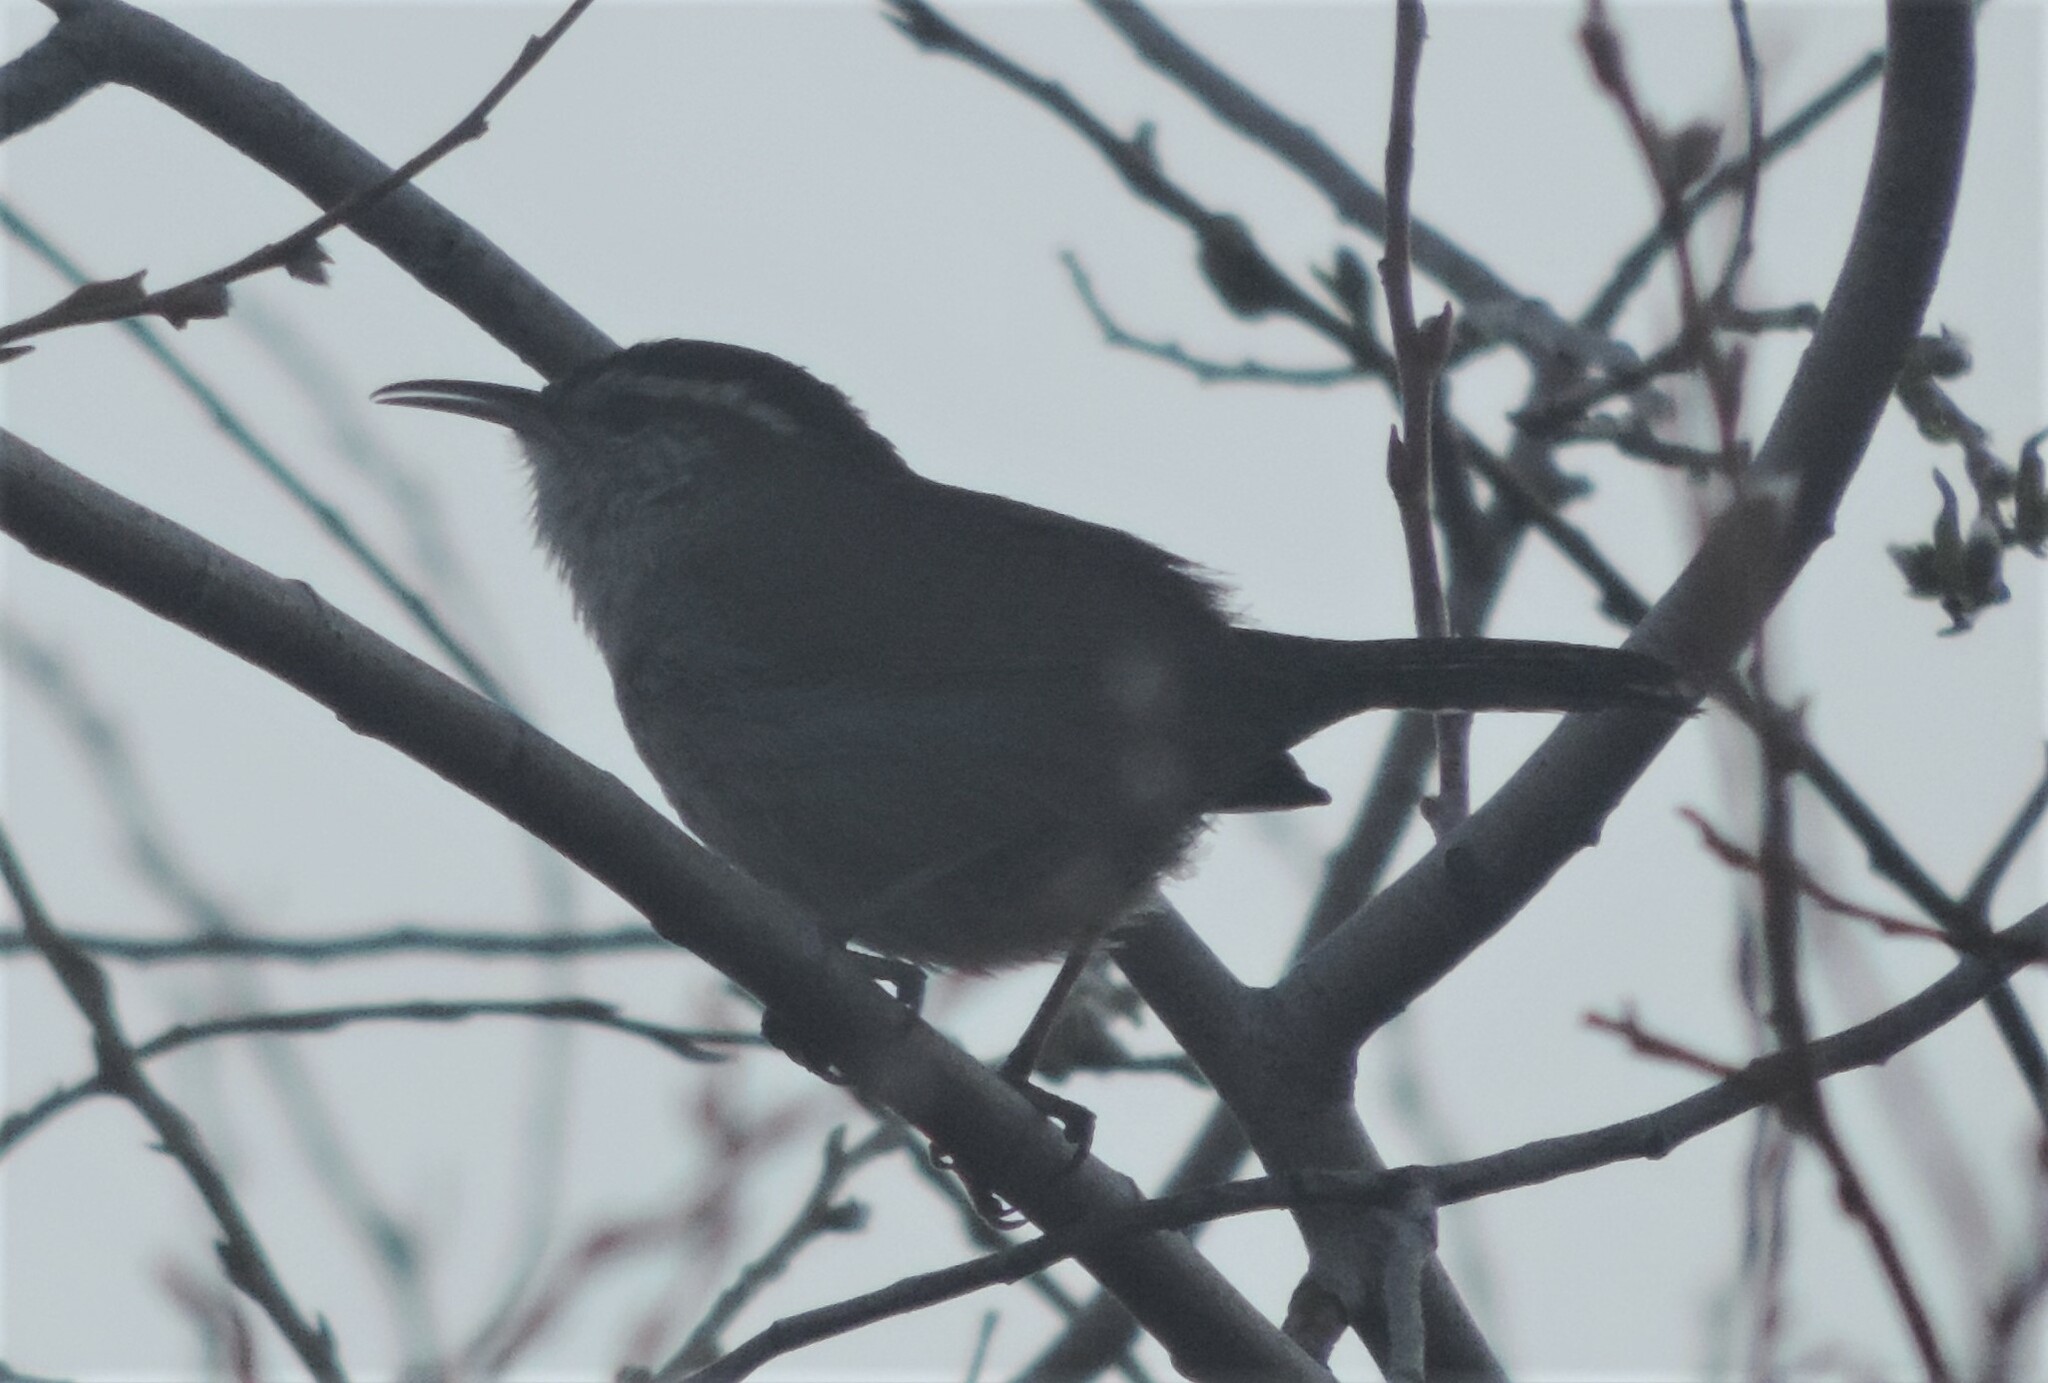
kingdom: Animalia
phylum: Chordata
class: Aves
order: Passeriformes
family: Troglodytidae
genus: Thryomanes
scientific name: Thryomanes bewickii
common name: Bewick's wren
